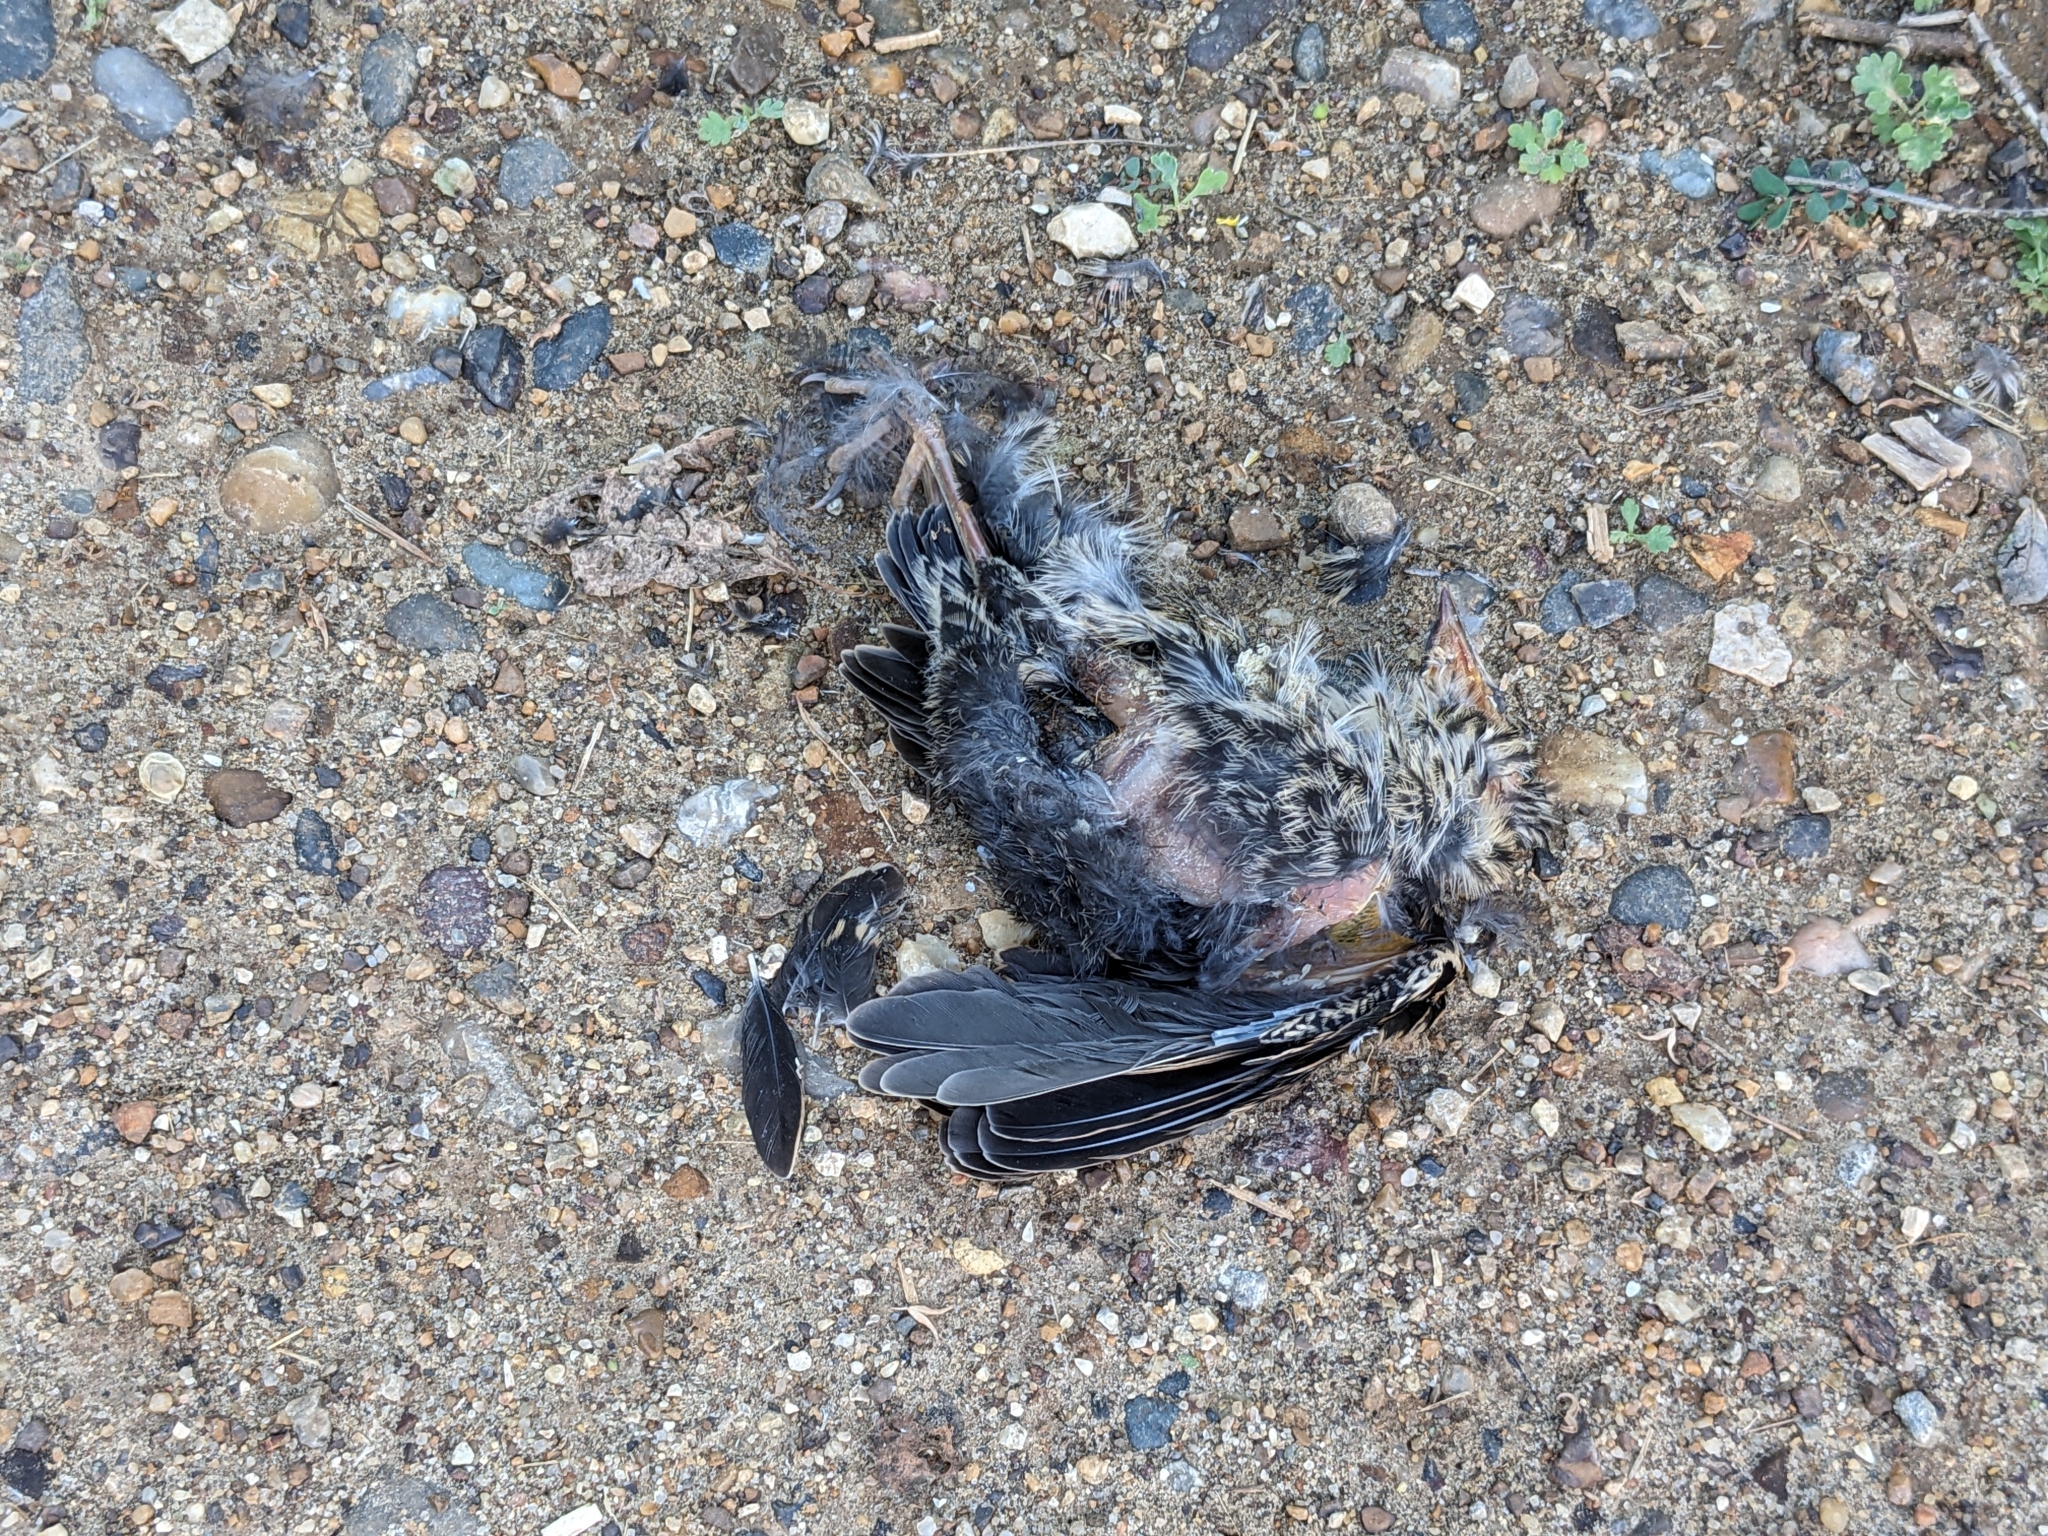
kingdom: Animalia
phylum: Chordata
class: Aves
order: Passeriformes
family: Turdidae
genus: Turdus
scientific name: Turdus migratorius
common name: American robin
